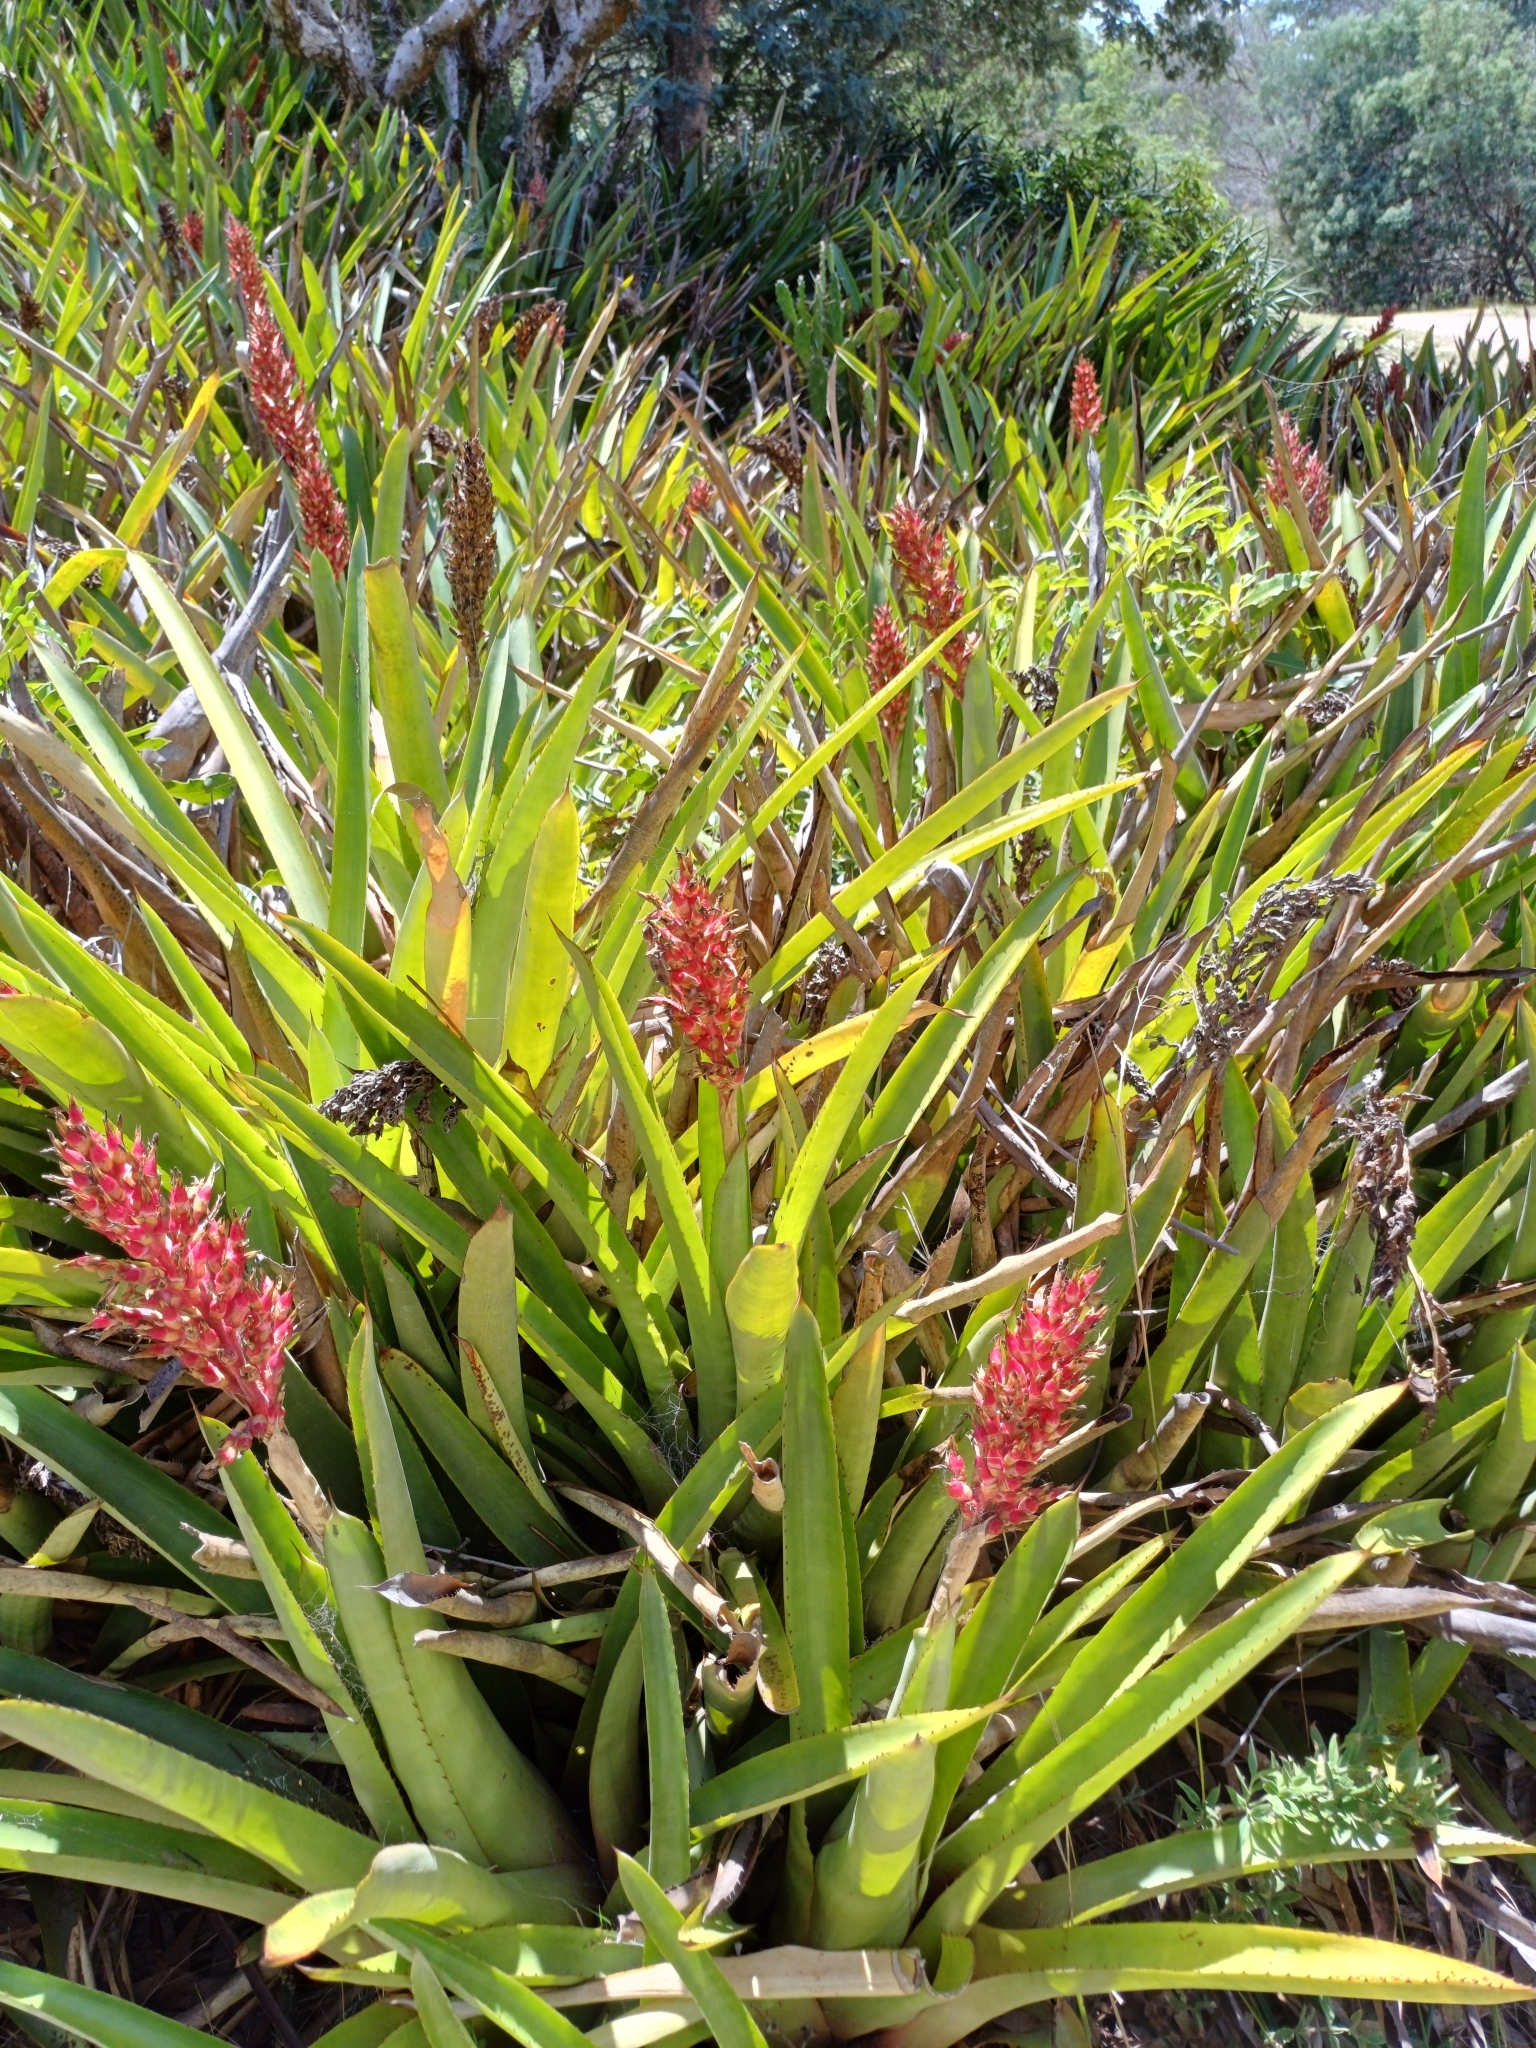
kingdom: Plantae
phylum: Tracheophyta
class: Liliopsida
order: Poales
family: Bromeliaceae
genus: Aechmea
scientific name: Aechmea distichantha
